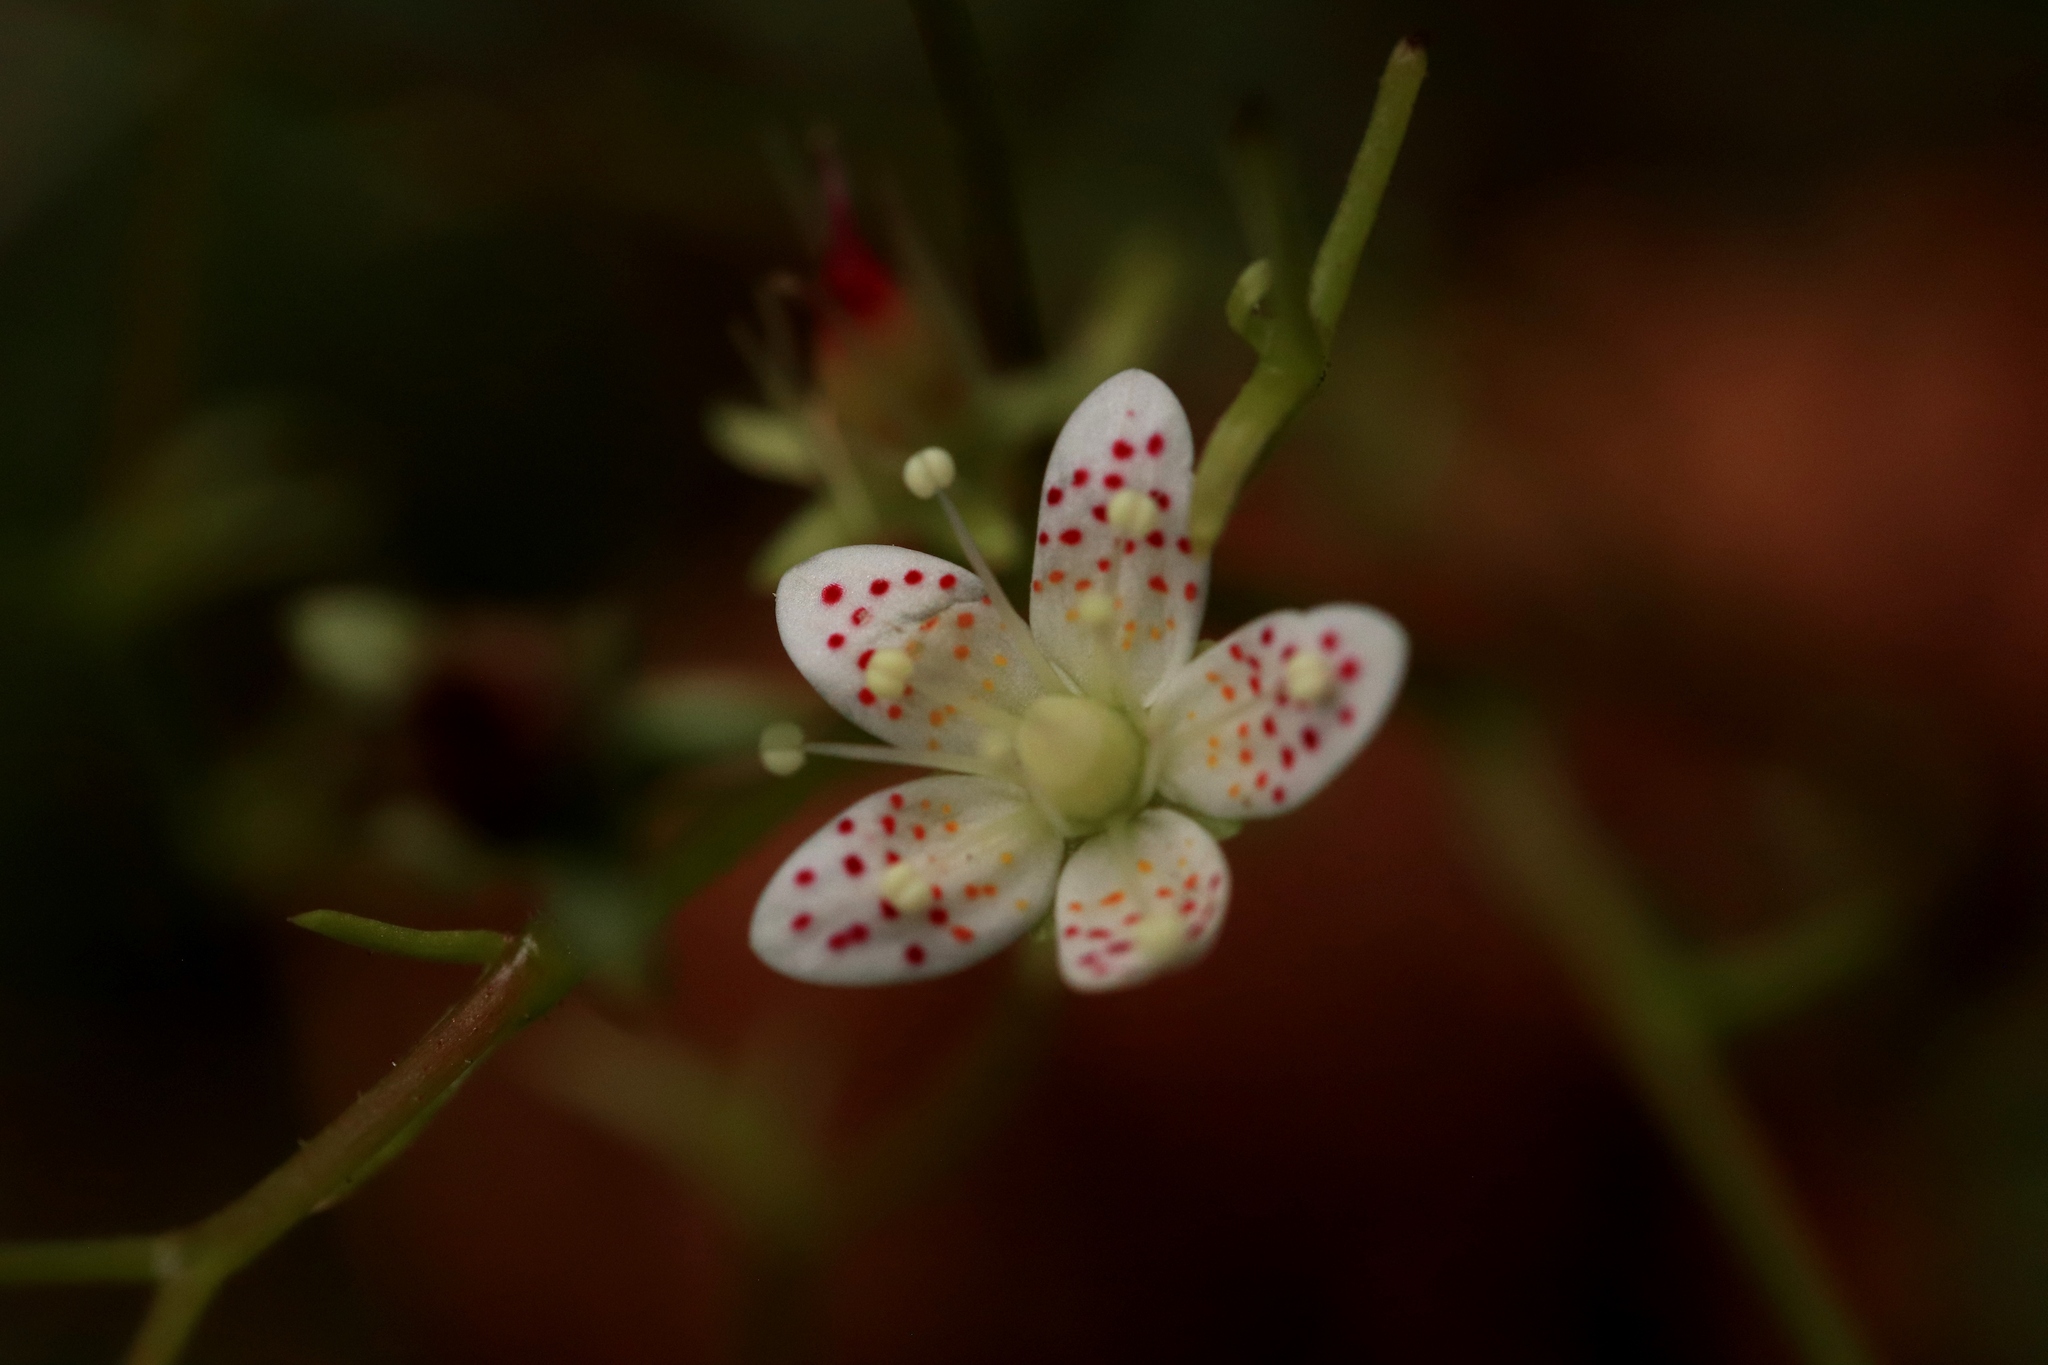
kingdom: Plantae
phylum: Tracheophyta
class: Magnoliopsida
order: Saxifragales
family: Saxifragaceae
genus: Saxifraga
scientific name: Saxifraga bronchialis
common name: Matted saxifrage
